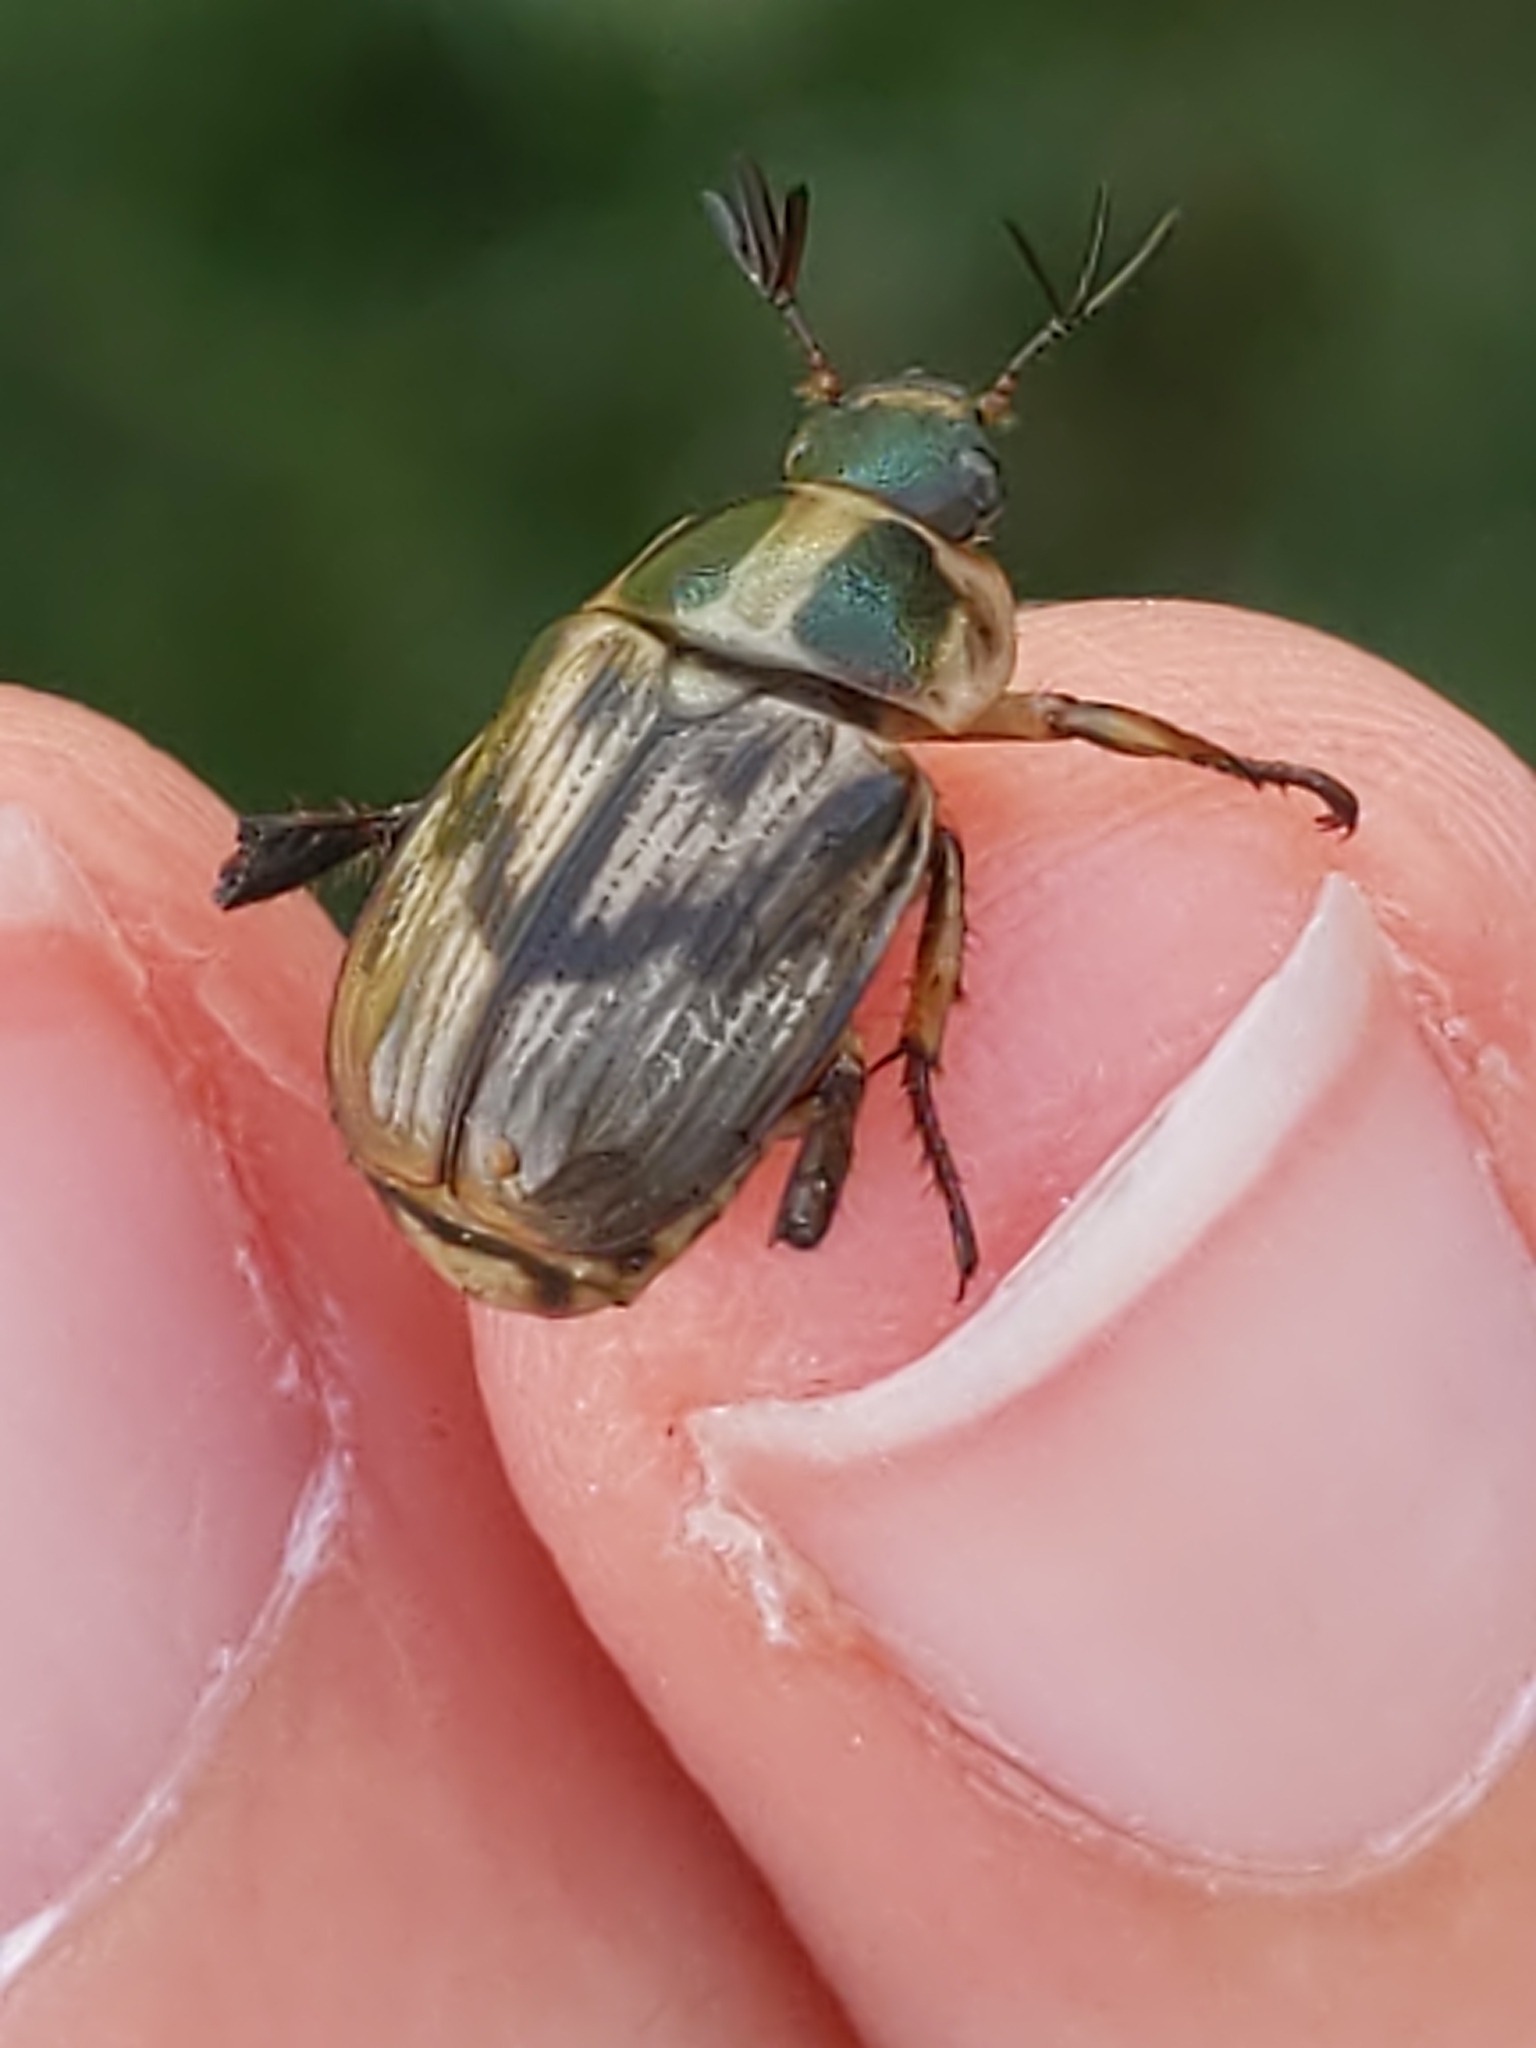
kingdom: Animalia
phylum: Arthropoda
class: Insecta
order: Coleoptera
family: Scarabaeidae
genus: Exomala
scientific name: Exomala orientalis
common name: Oriental beetle
